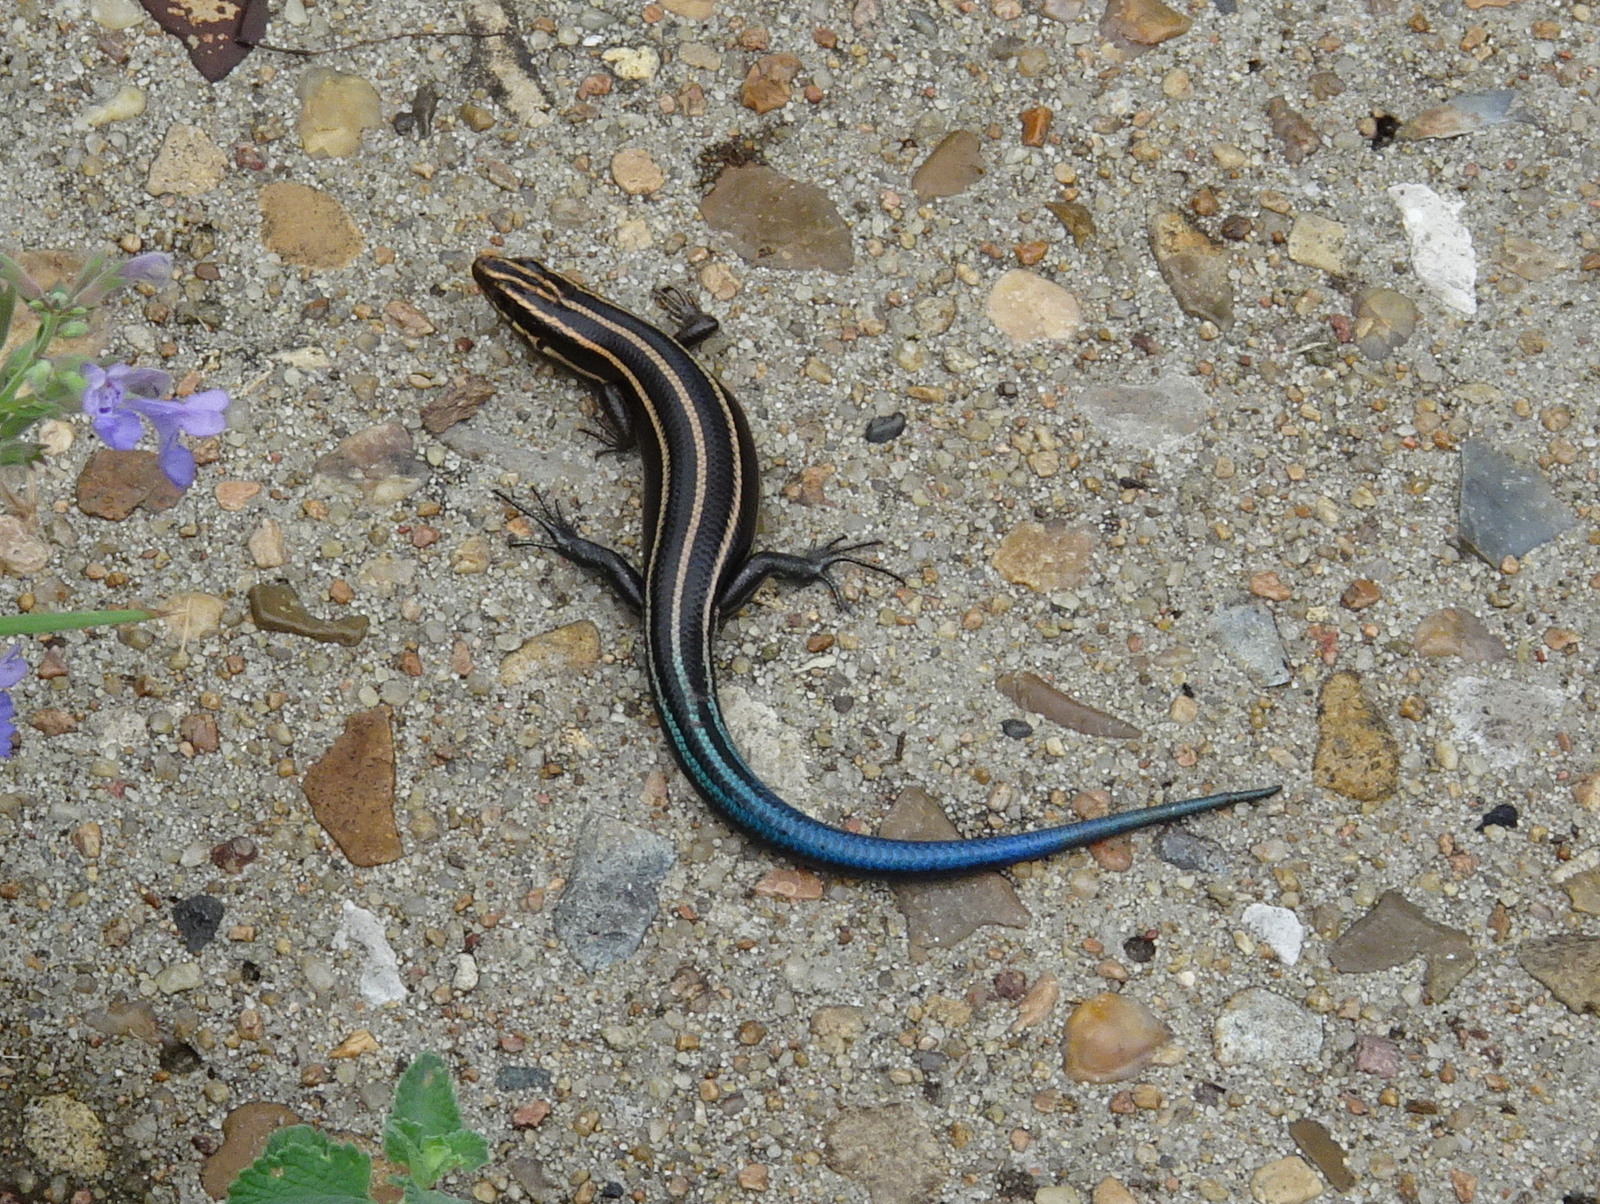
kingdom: Animalia
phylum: Chordata
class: Squamata
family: Scincidae
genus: Plestiodon
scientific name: Plestiodon fasciatus
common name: Five-lined skink
